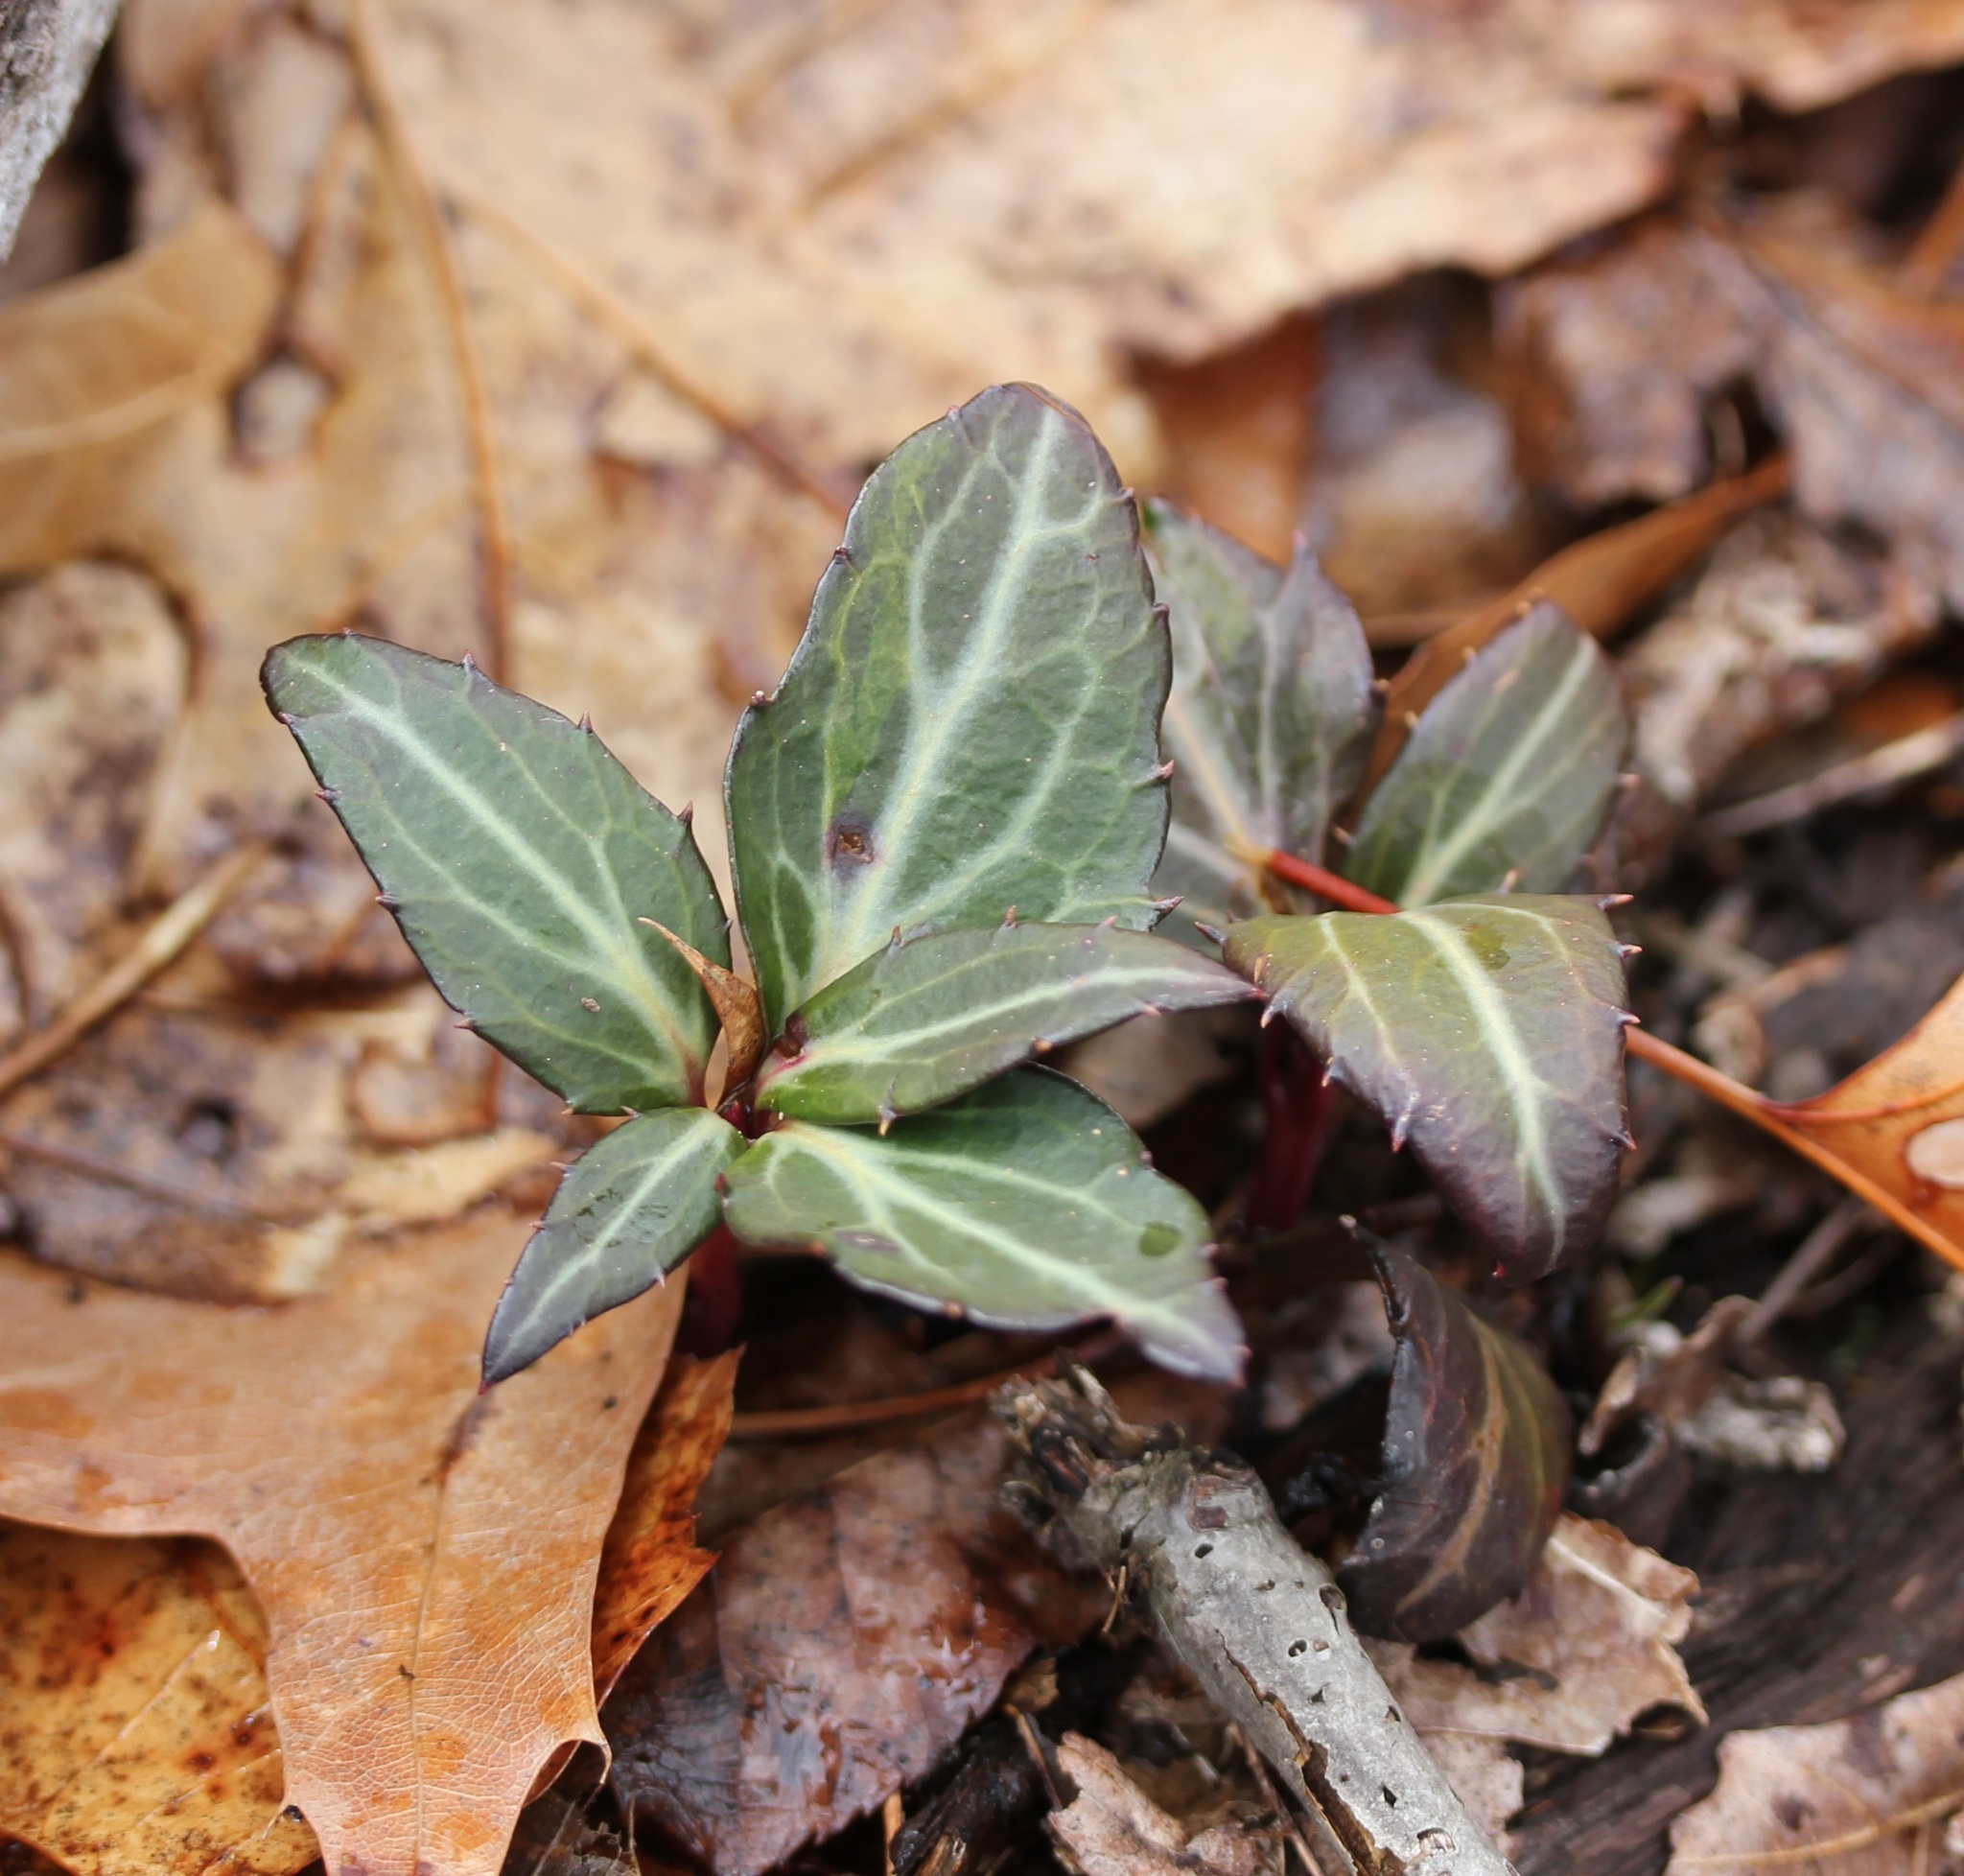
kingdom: Plantae
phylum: Tracheophyta
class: Magnoliopsida
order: Ericales
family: Ericaceae
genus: Chimaphila
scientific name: Chimaphila maculata
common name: Spotted pipsissewa
